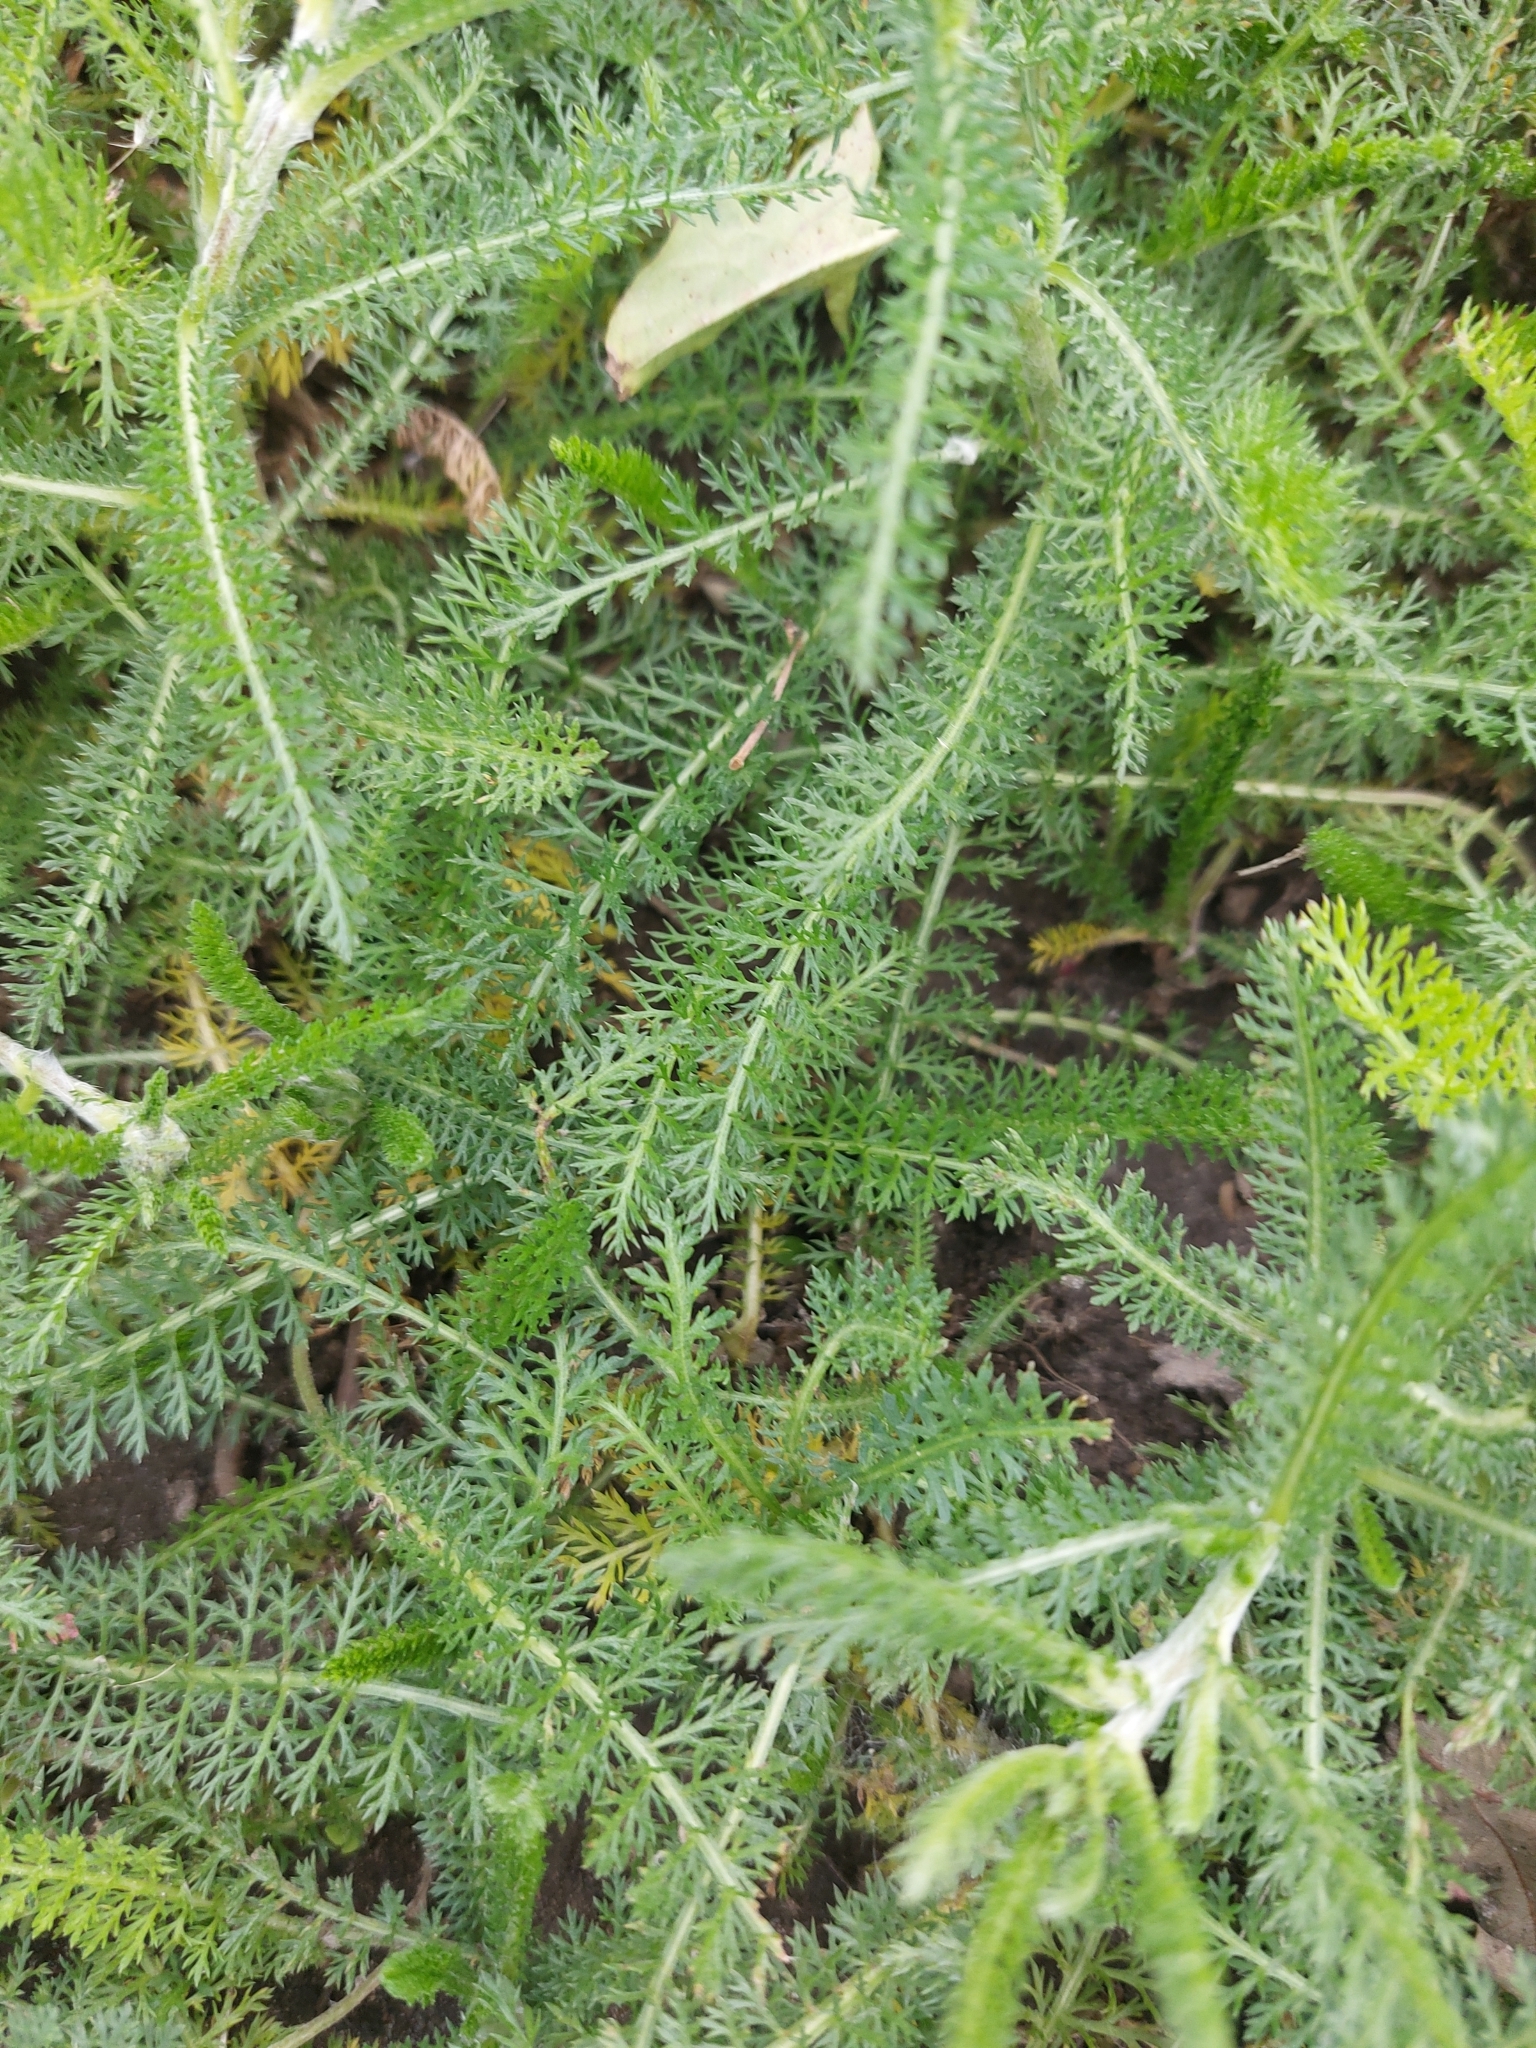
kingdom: Plantae
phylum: Tracheophyta
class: Magnoliopsida
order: Asterales
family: Asteraceae
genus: Achillea
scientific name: Achillea millefolium
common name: Yarrow
